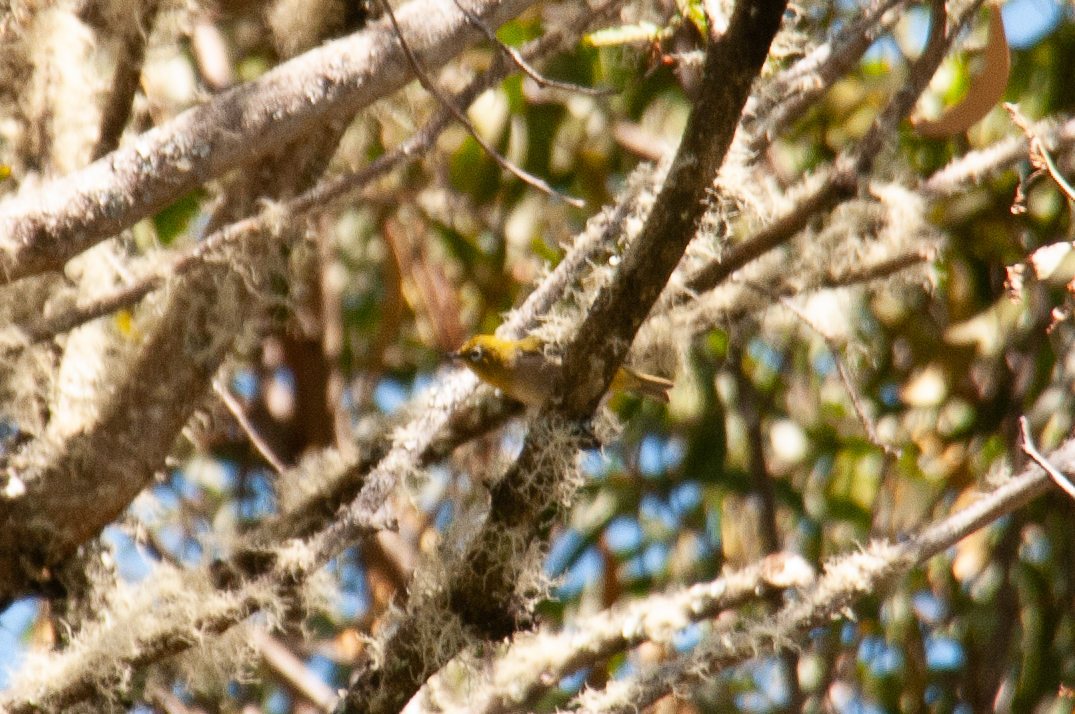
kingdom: Animalia
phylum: Chordata
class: Aves
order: Passeriformes
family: Zosteropidae
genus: Zosterops
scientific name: Zosterops japonicus
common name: Japanese white-eye
